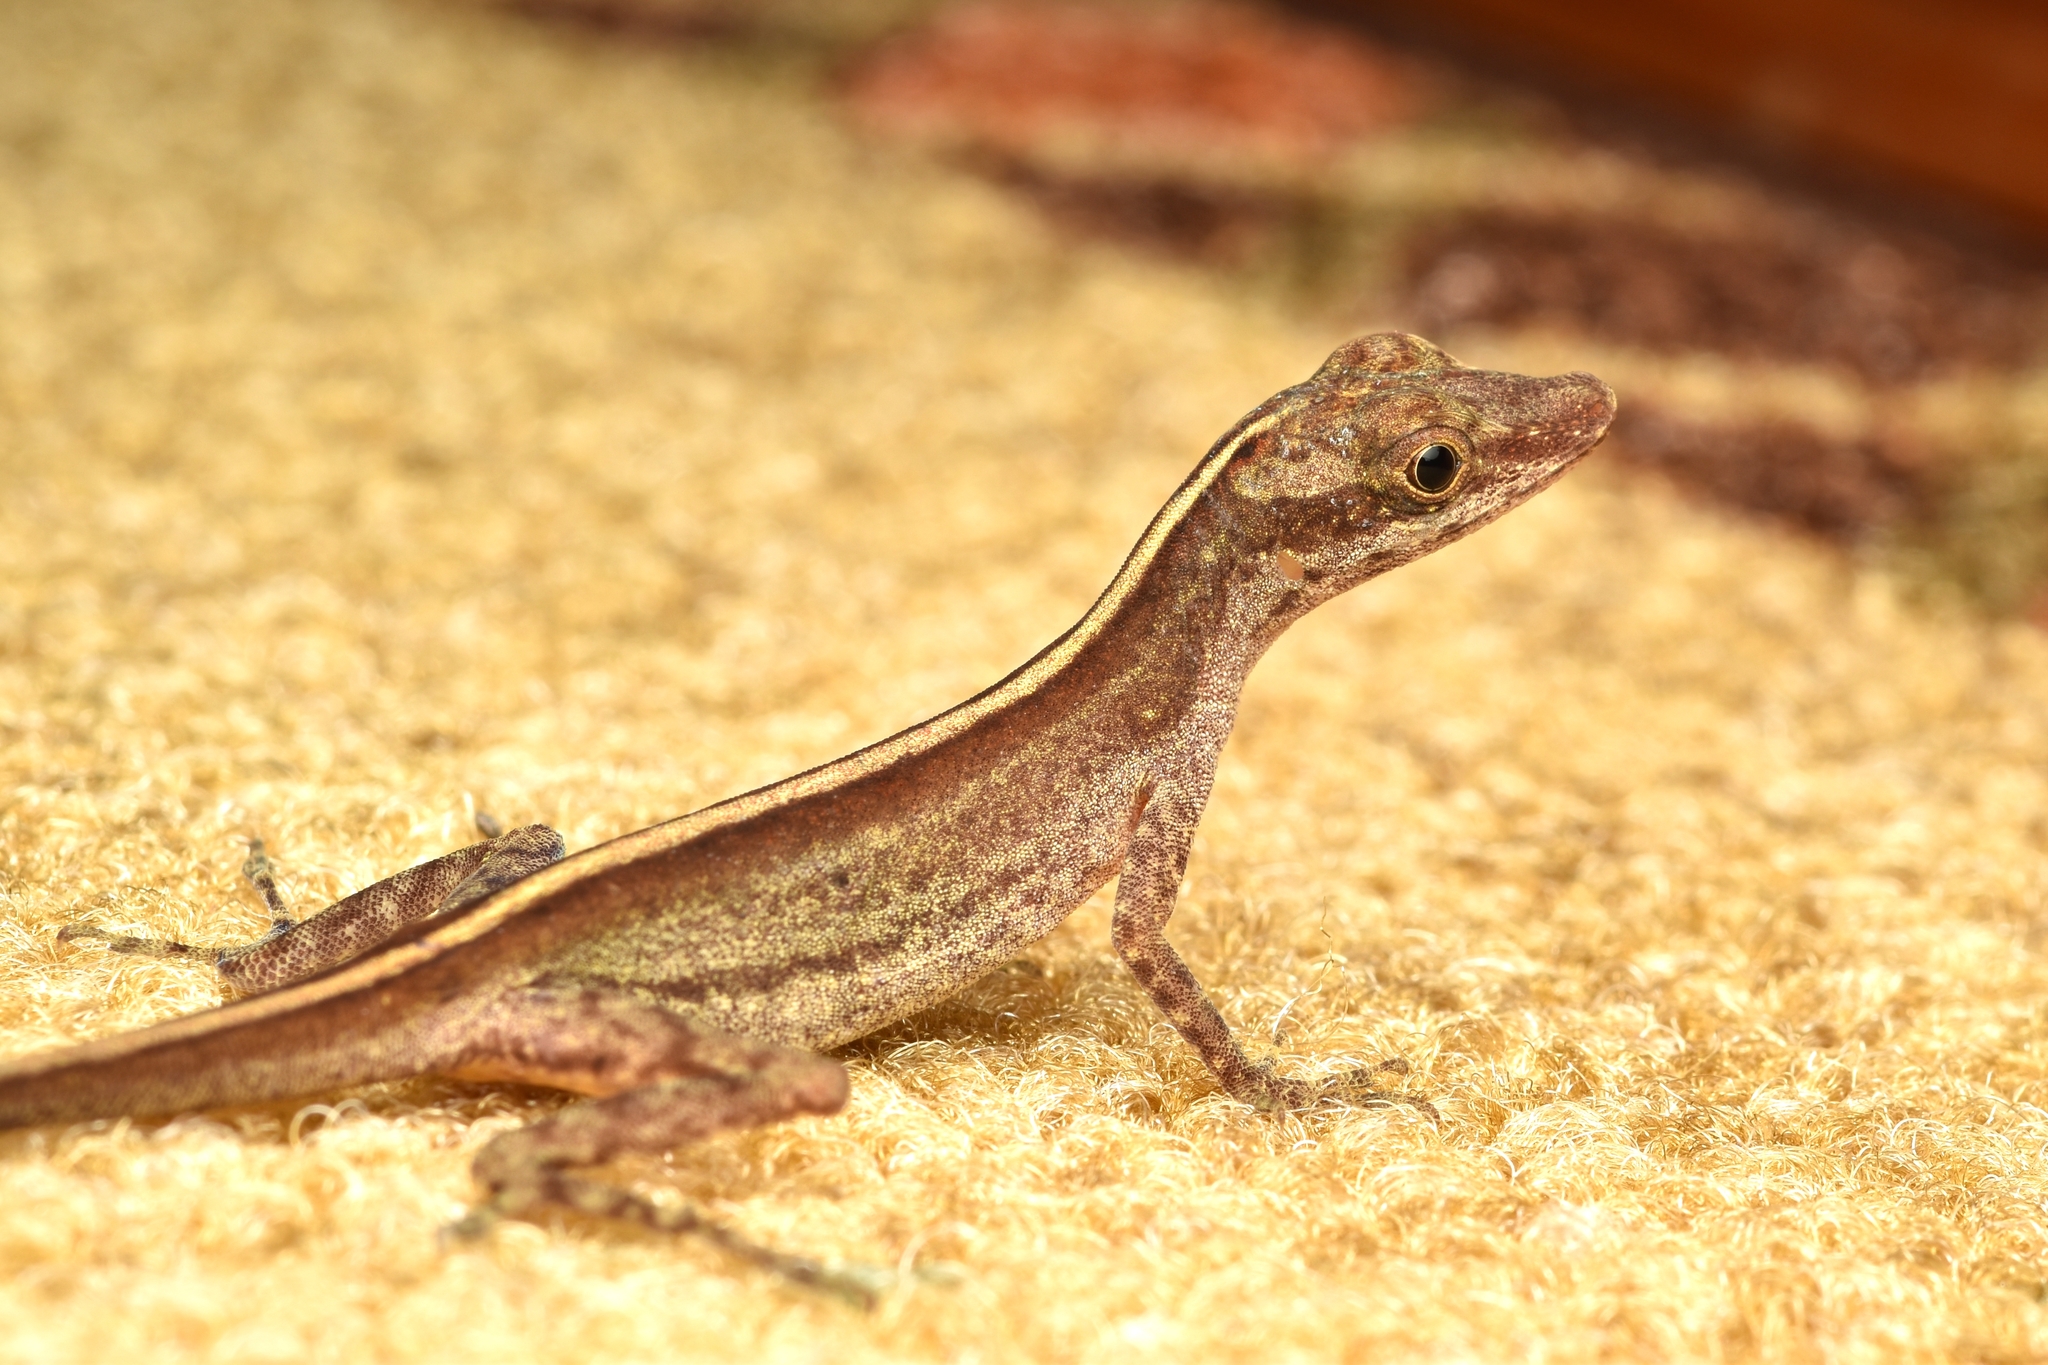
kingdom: Animalia
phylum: Chordata
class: Squamata
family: Dactyloidae
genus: Anolis
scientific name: Anolis lemurinus
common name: Ghost anole
